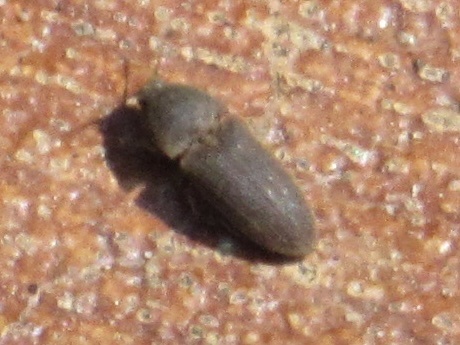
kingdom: Animalia
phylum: Arthropoda
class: Insecta
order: Coleoptera
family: Elateridae
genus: Agrypnus
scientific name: Agrypnus rectangularis
